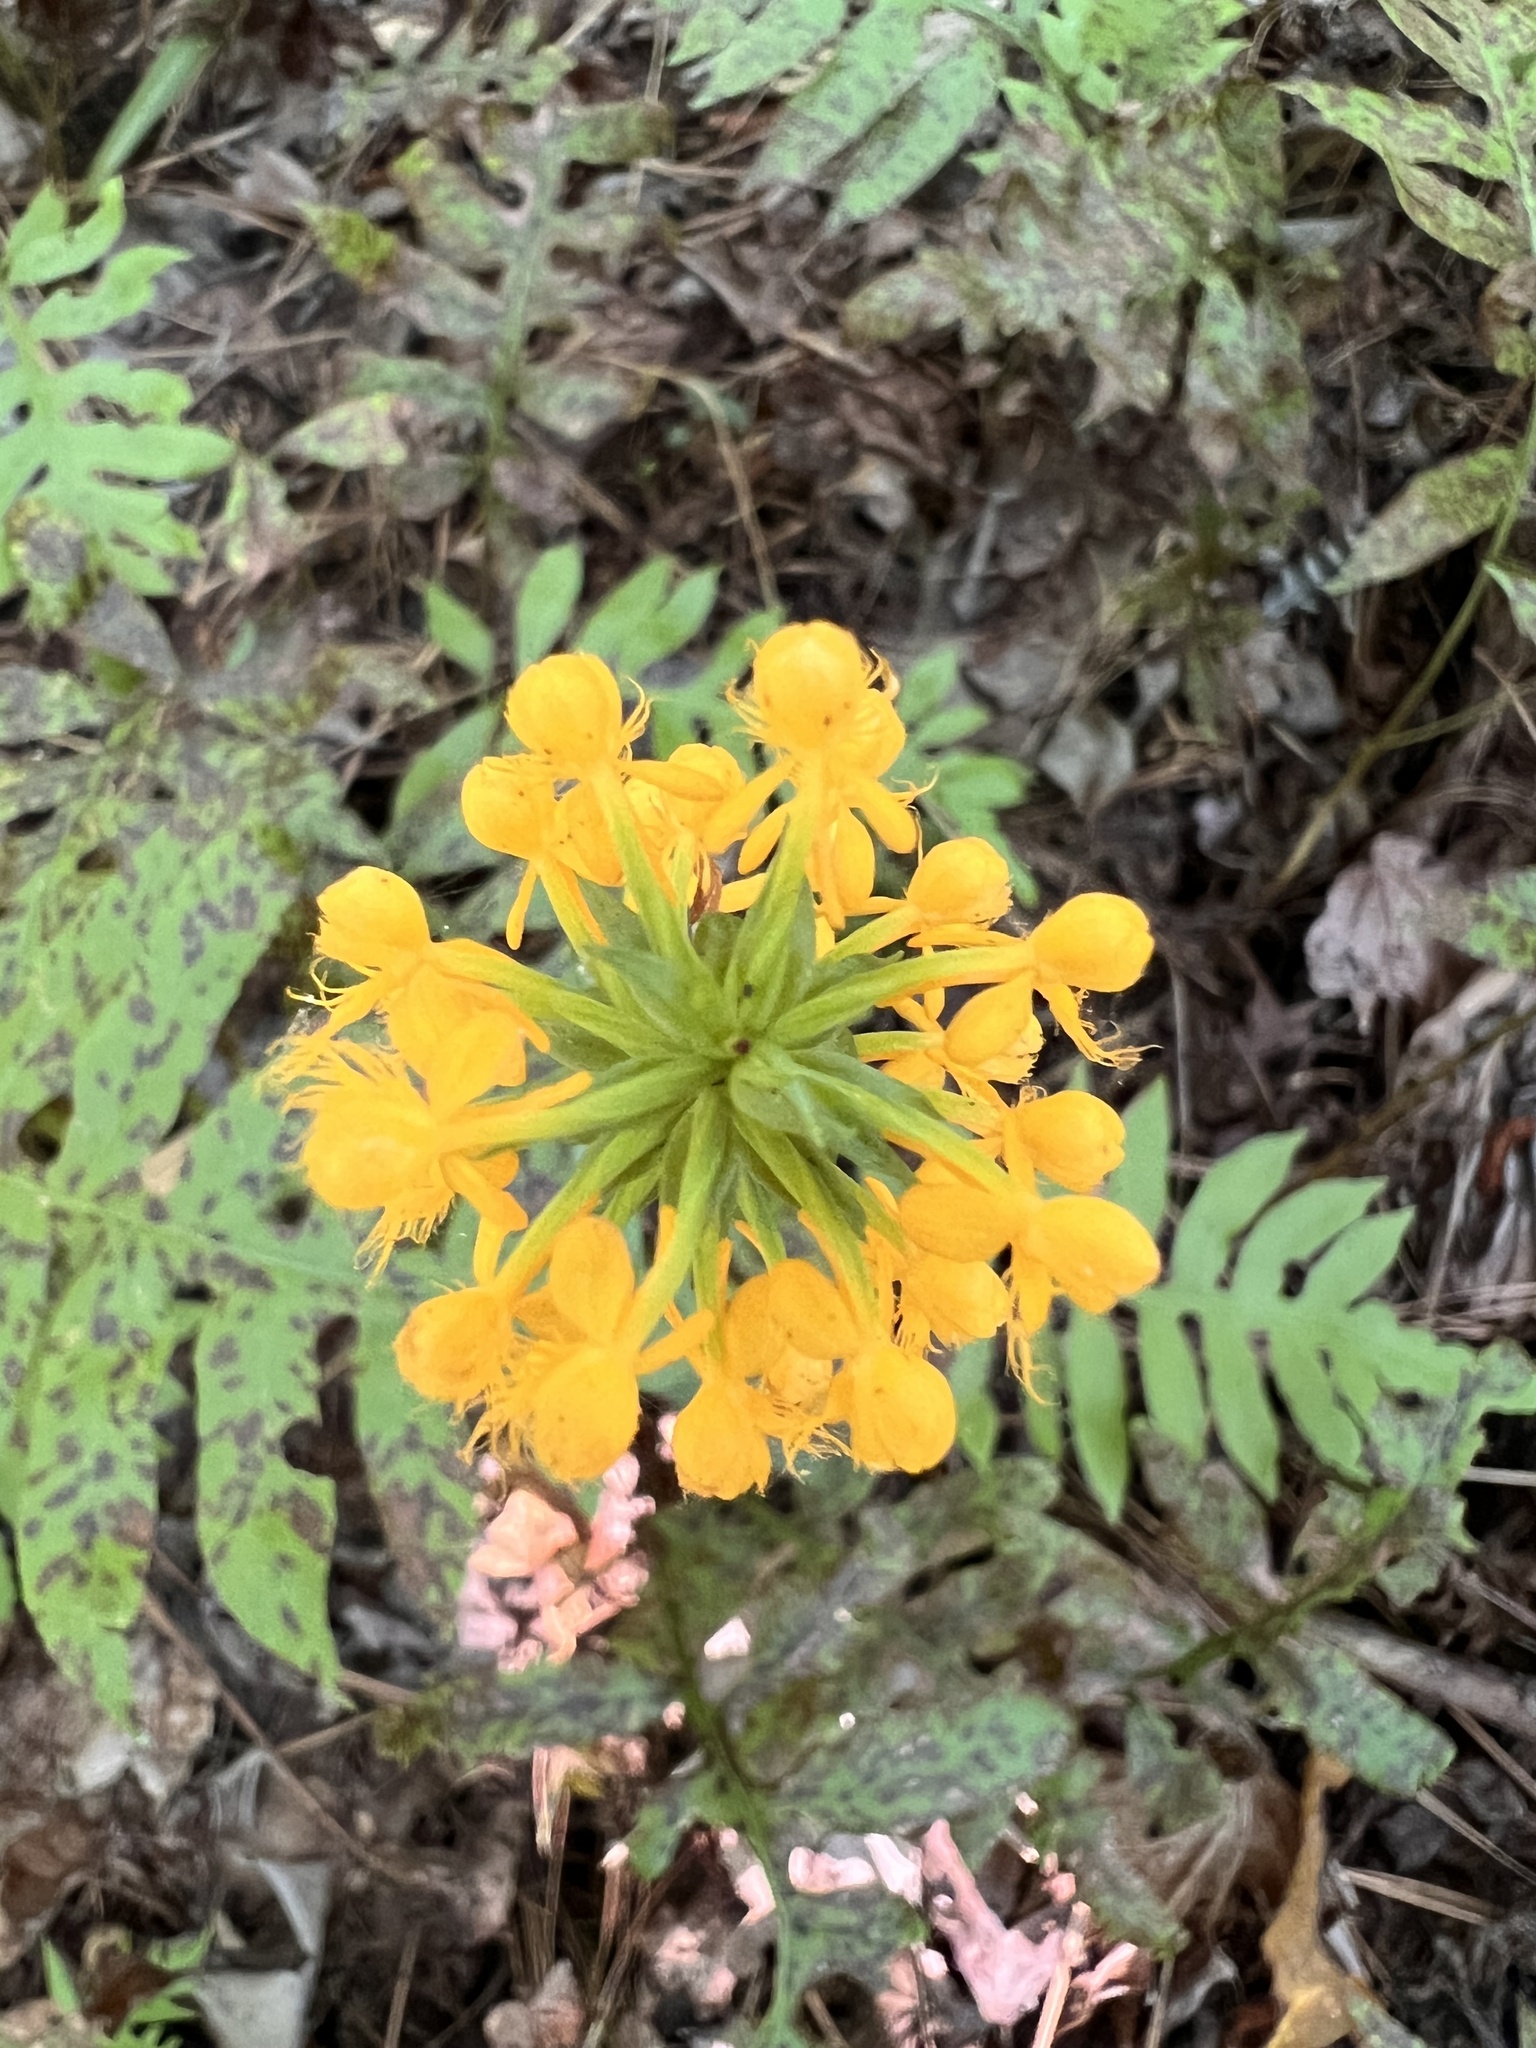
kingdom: Plantae
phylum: Tracheophyta
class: Liliopsida
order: Asparagales
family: Orchidaceae
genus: Platanthera
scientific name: Platanthera cristata
